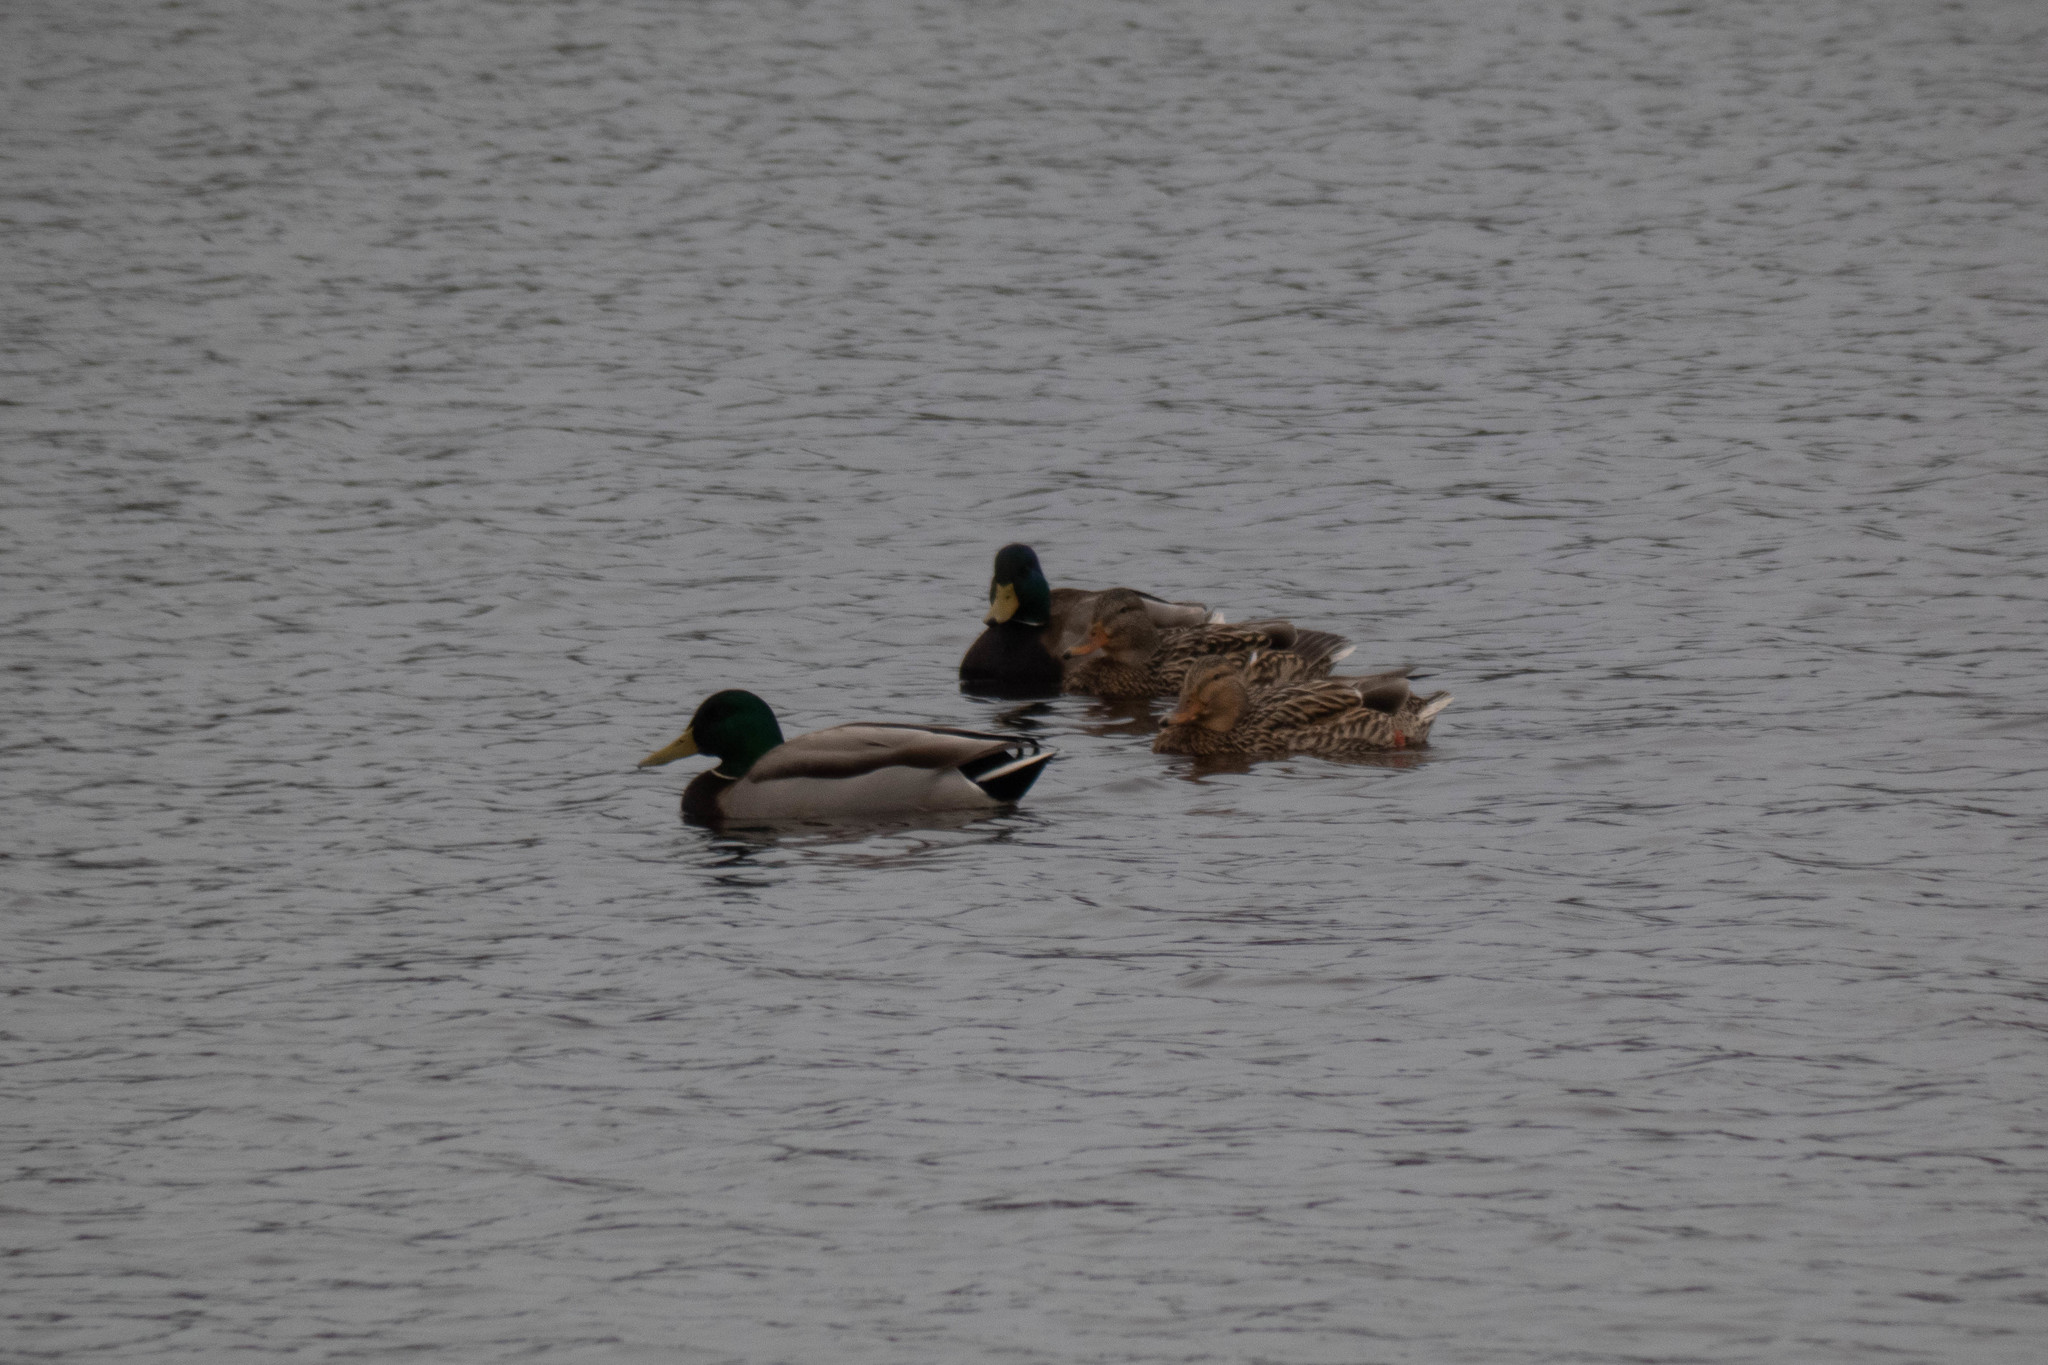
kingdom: Animalia
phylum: Chordata
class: Aves
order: Anseriformes
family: Anatidae
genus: Anas
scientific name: Anas platyrhynchos
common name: Mallard
